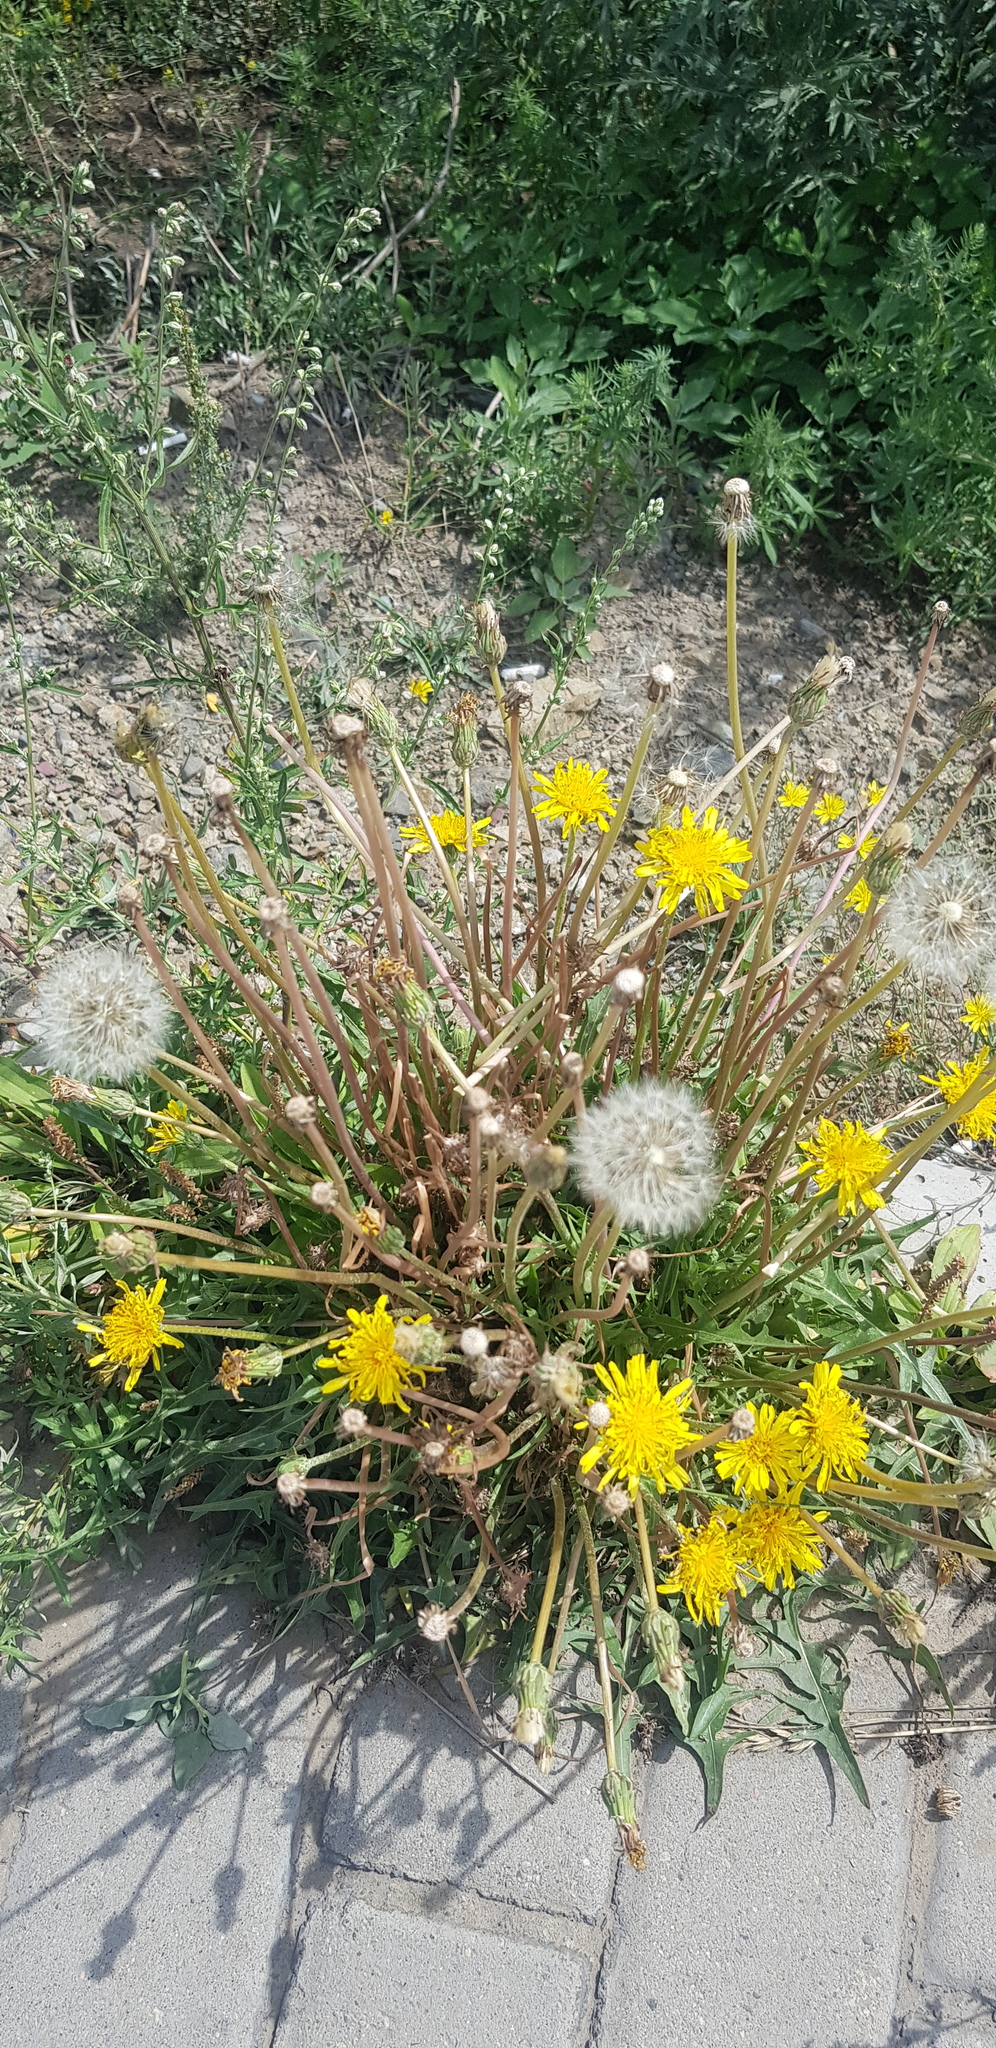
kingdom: Plantae
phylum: Tracheophyta
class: Magnoliopsida
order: Asterales
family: Asteraceae
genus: Taraxacum
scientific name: Taraxacum officinale
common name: Common dandelion
